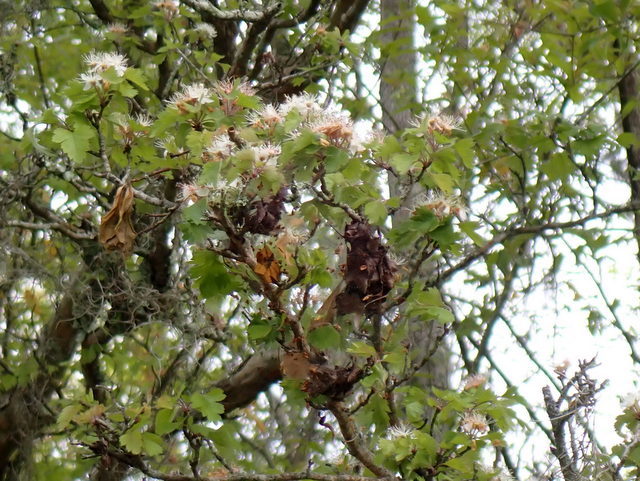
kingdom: Plantae
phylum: Tracheophyta
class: Magnoliopsida
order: Rosales
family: Rosaceae
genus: Crataegus
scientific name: Crataegus marshallii
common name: Parsley-hawthorn
